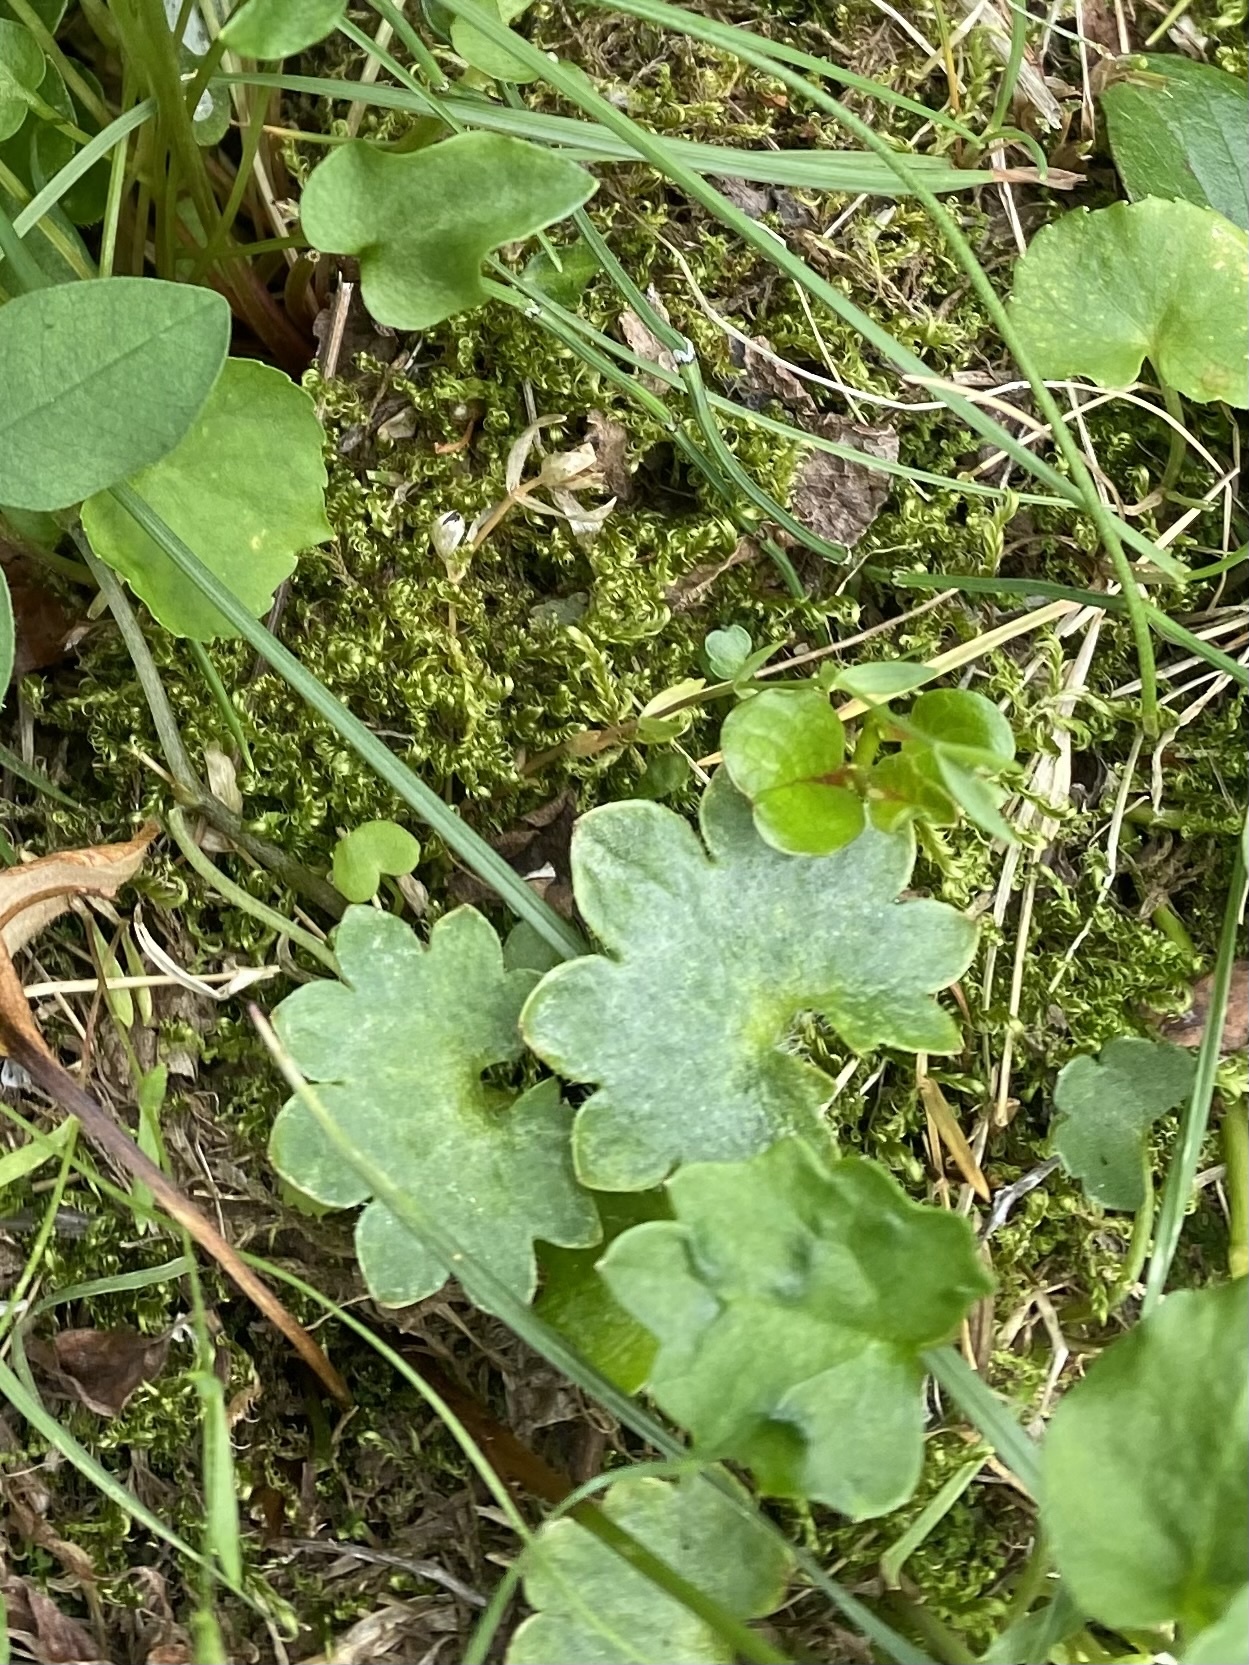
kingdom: Plantae
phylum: Tracheophyta
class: Magnoliopsida
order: Saxifragales
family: Saxifragaceae
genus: Micranthes
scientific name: Micranthes nelsoniana
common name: Nelson's saxifrage
